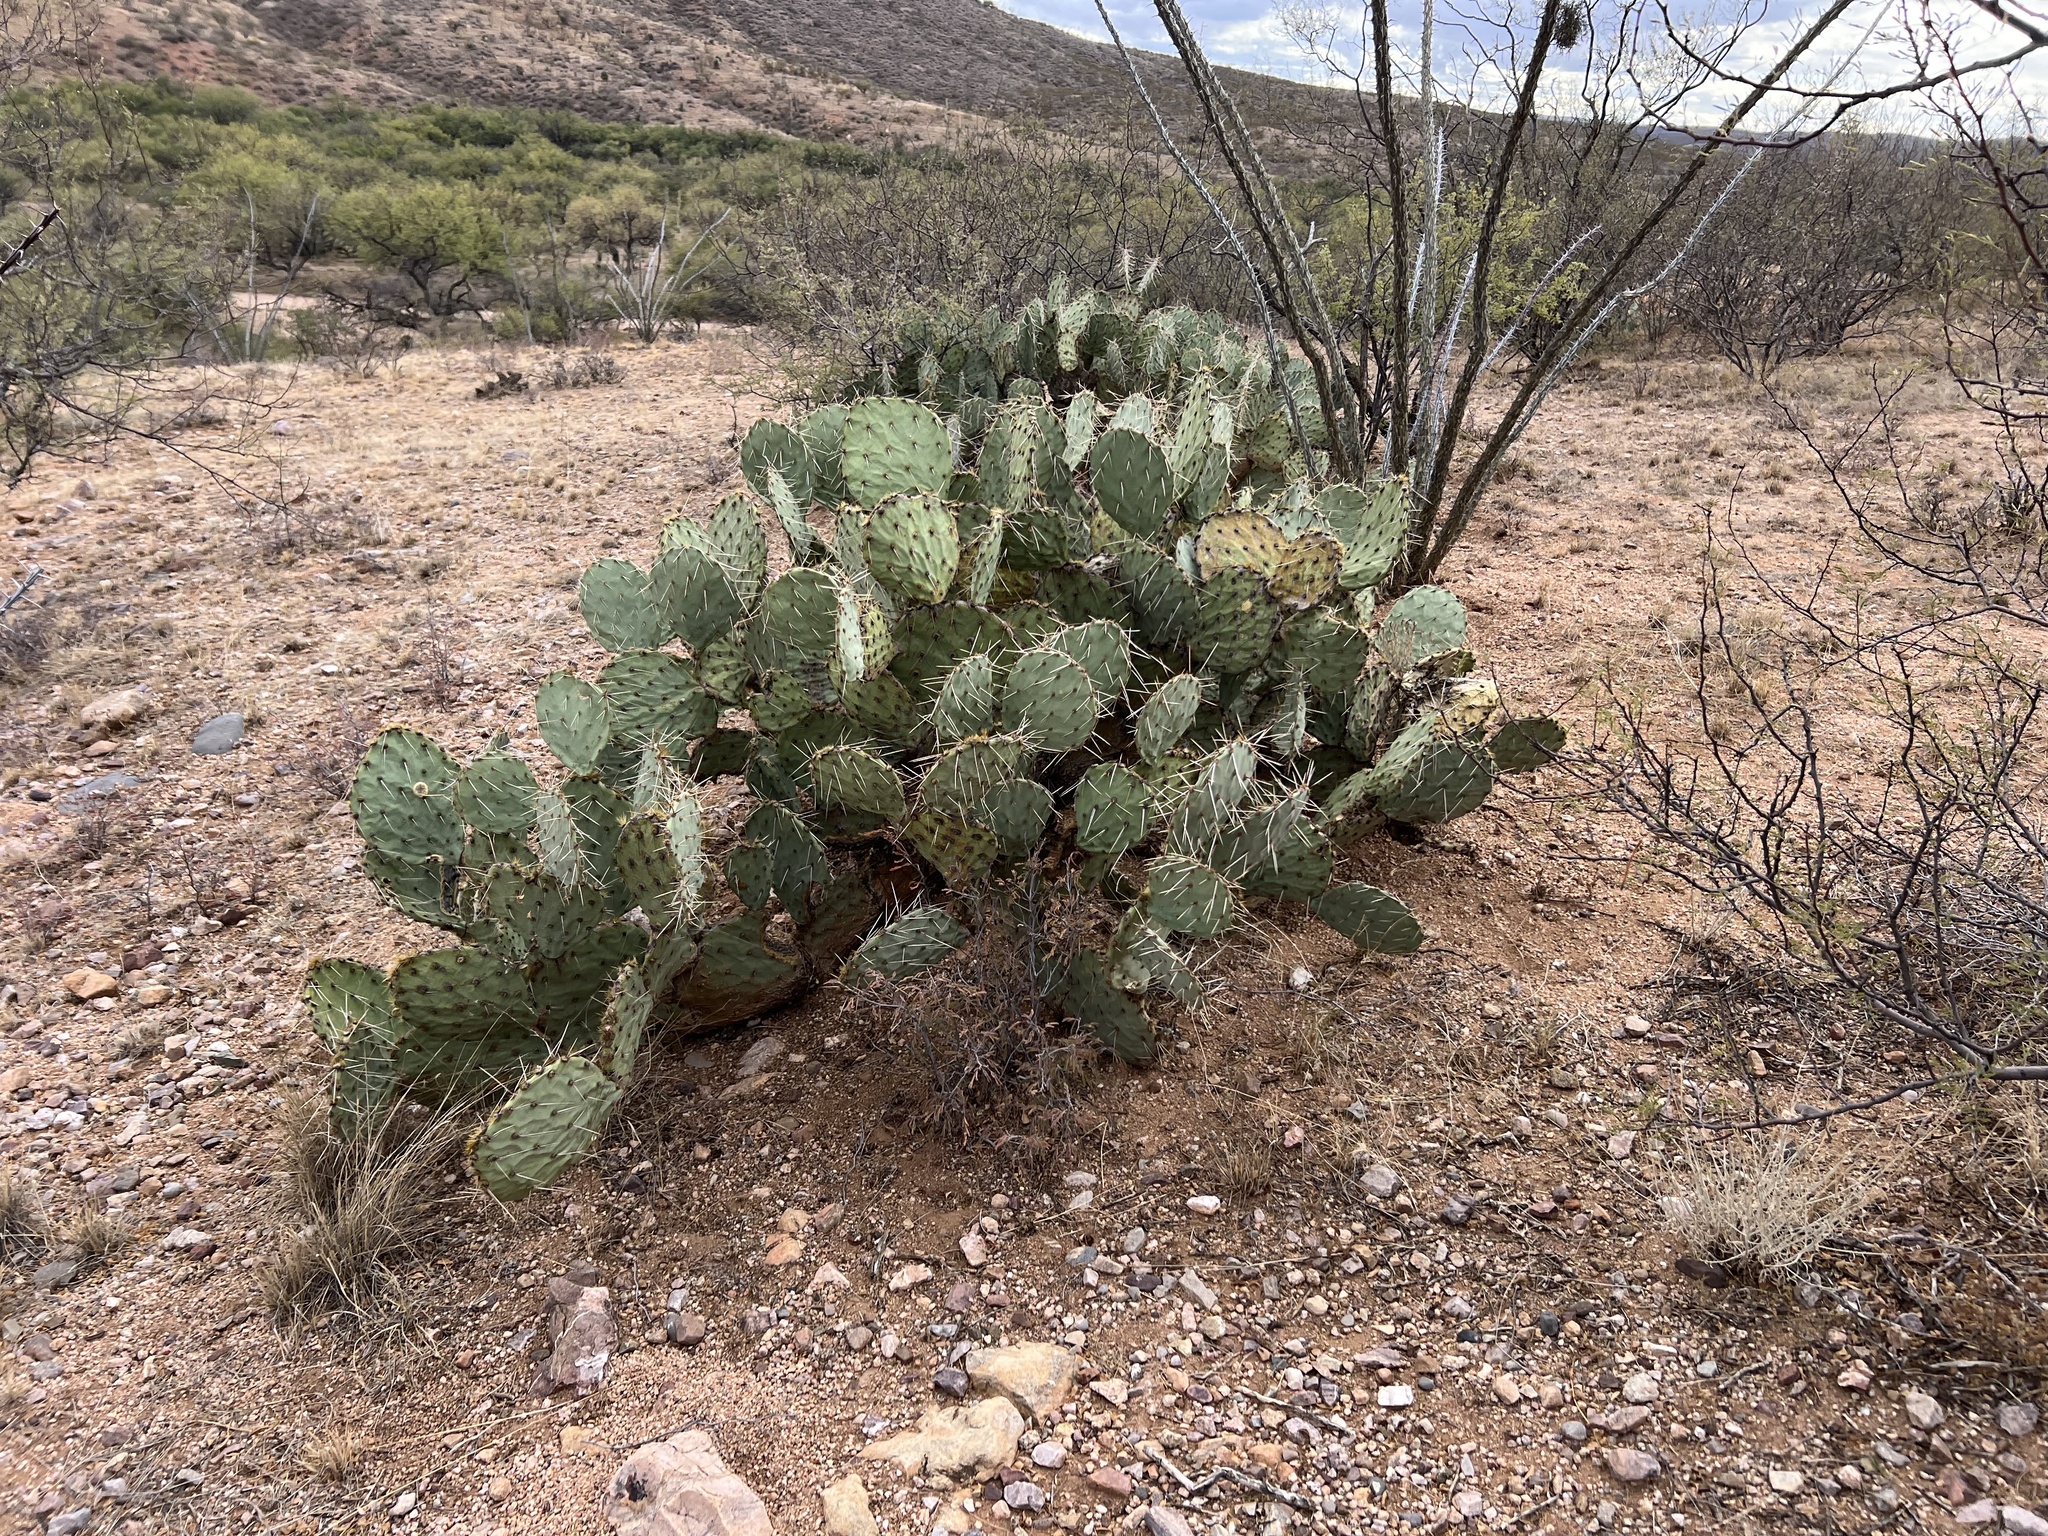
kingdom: Plantae
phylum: Tracheophyta
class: Magnoliopsida
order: Caryophyllales
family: Cactaceae
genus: Opuntia
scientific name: Opuntia engelmannii
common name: Cactus-apple
